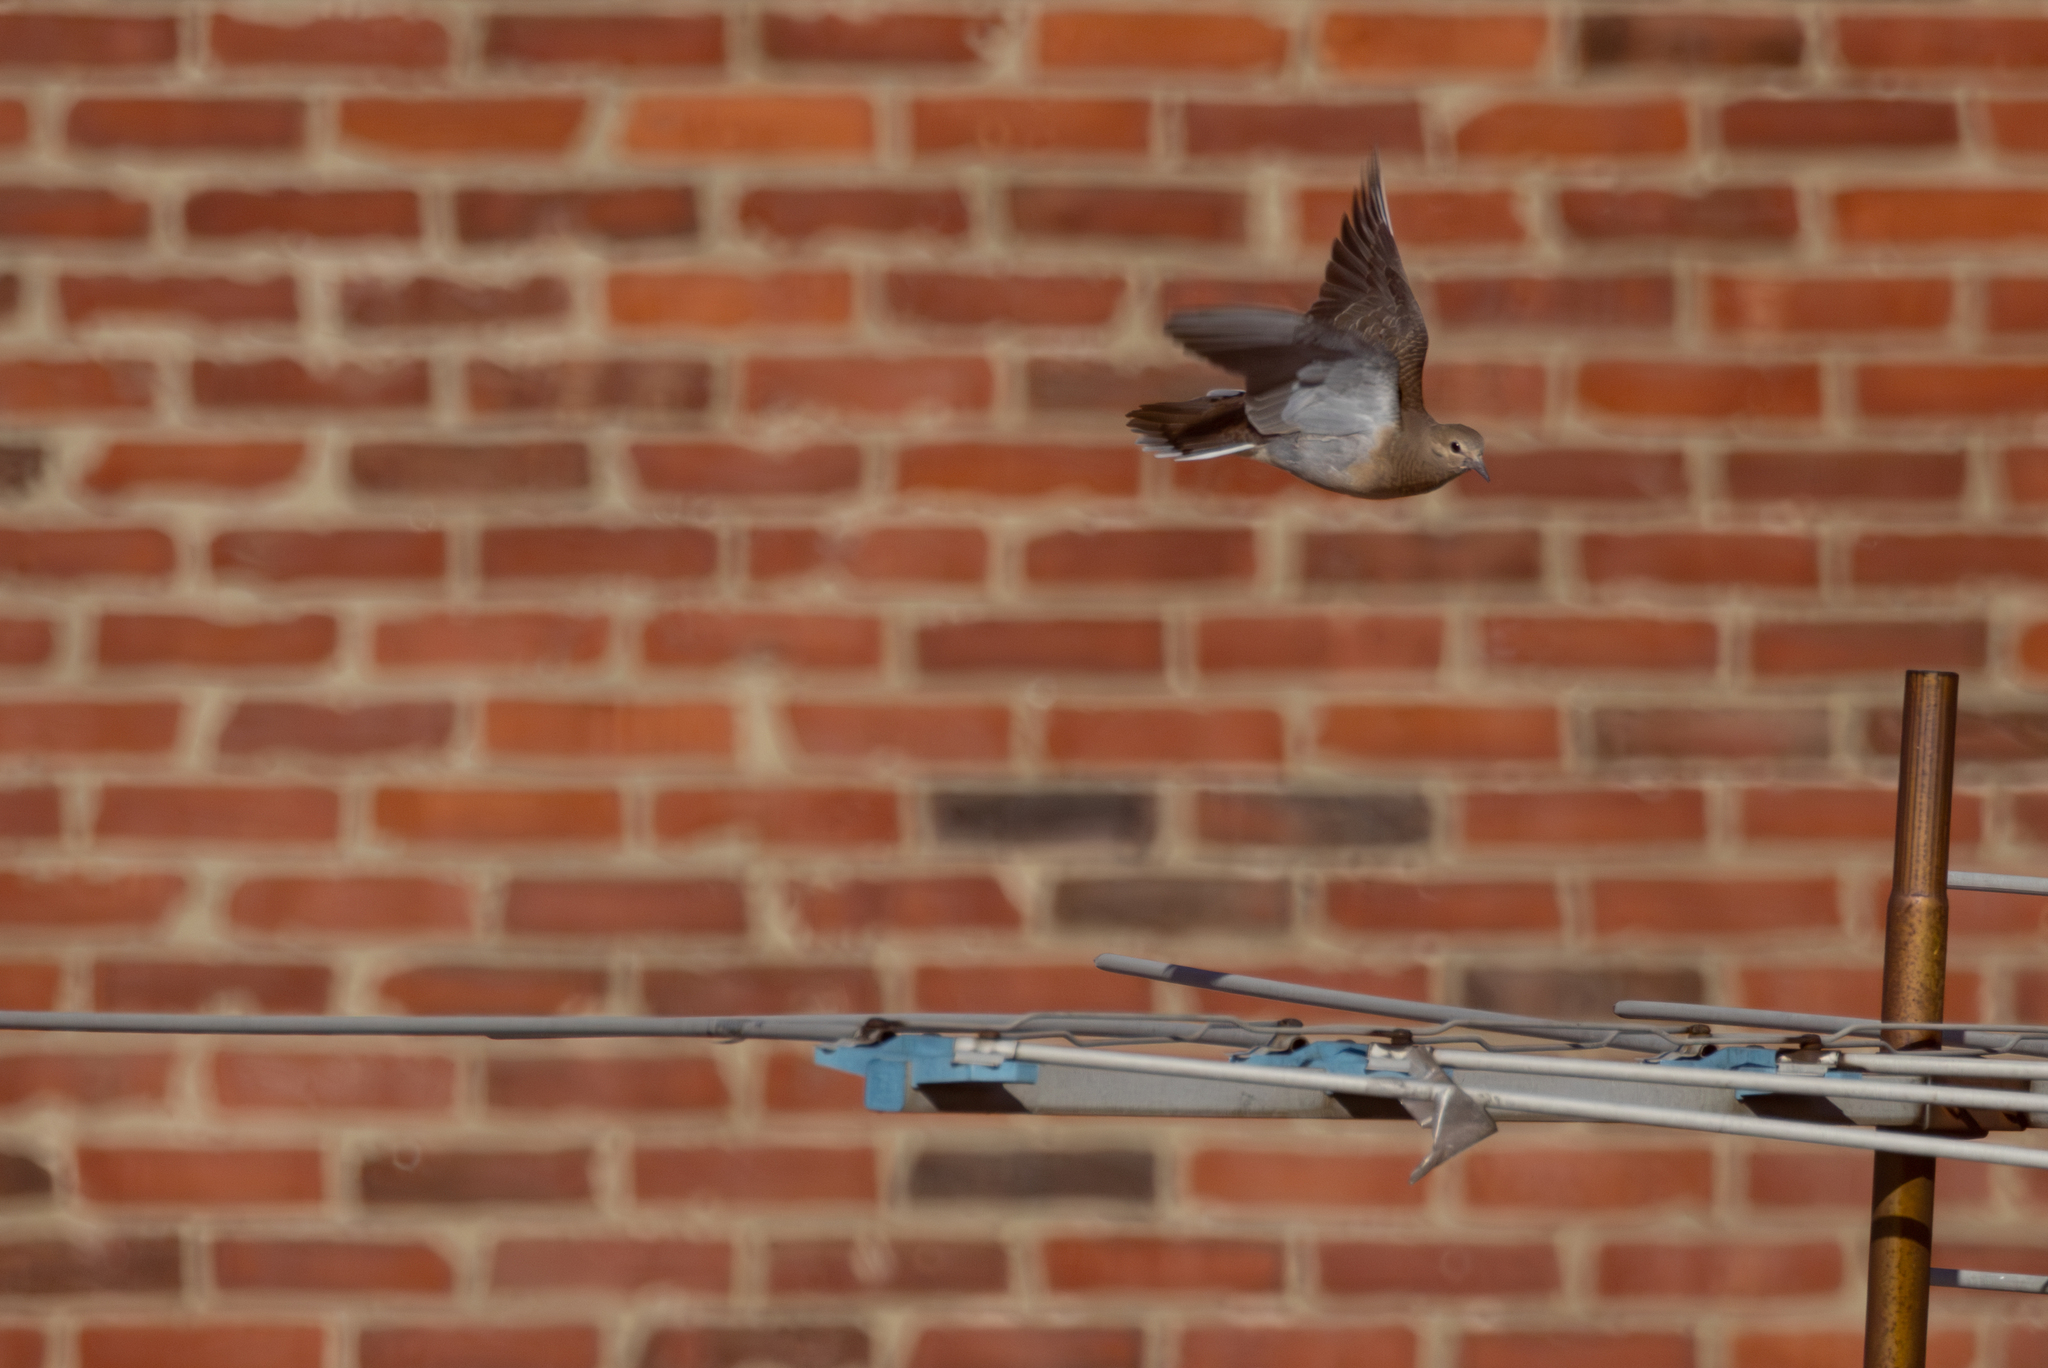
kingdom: Animalia
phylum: Chordata
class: Aves
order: Columbiformes
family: Columbidae
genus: Zenaida
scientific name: Zenaida macroura
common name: Mourning dove
